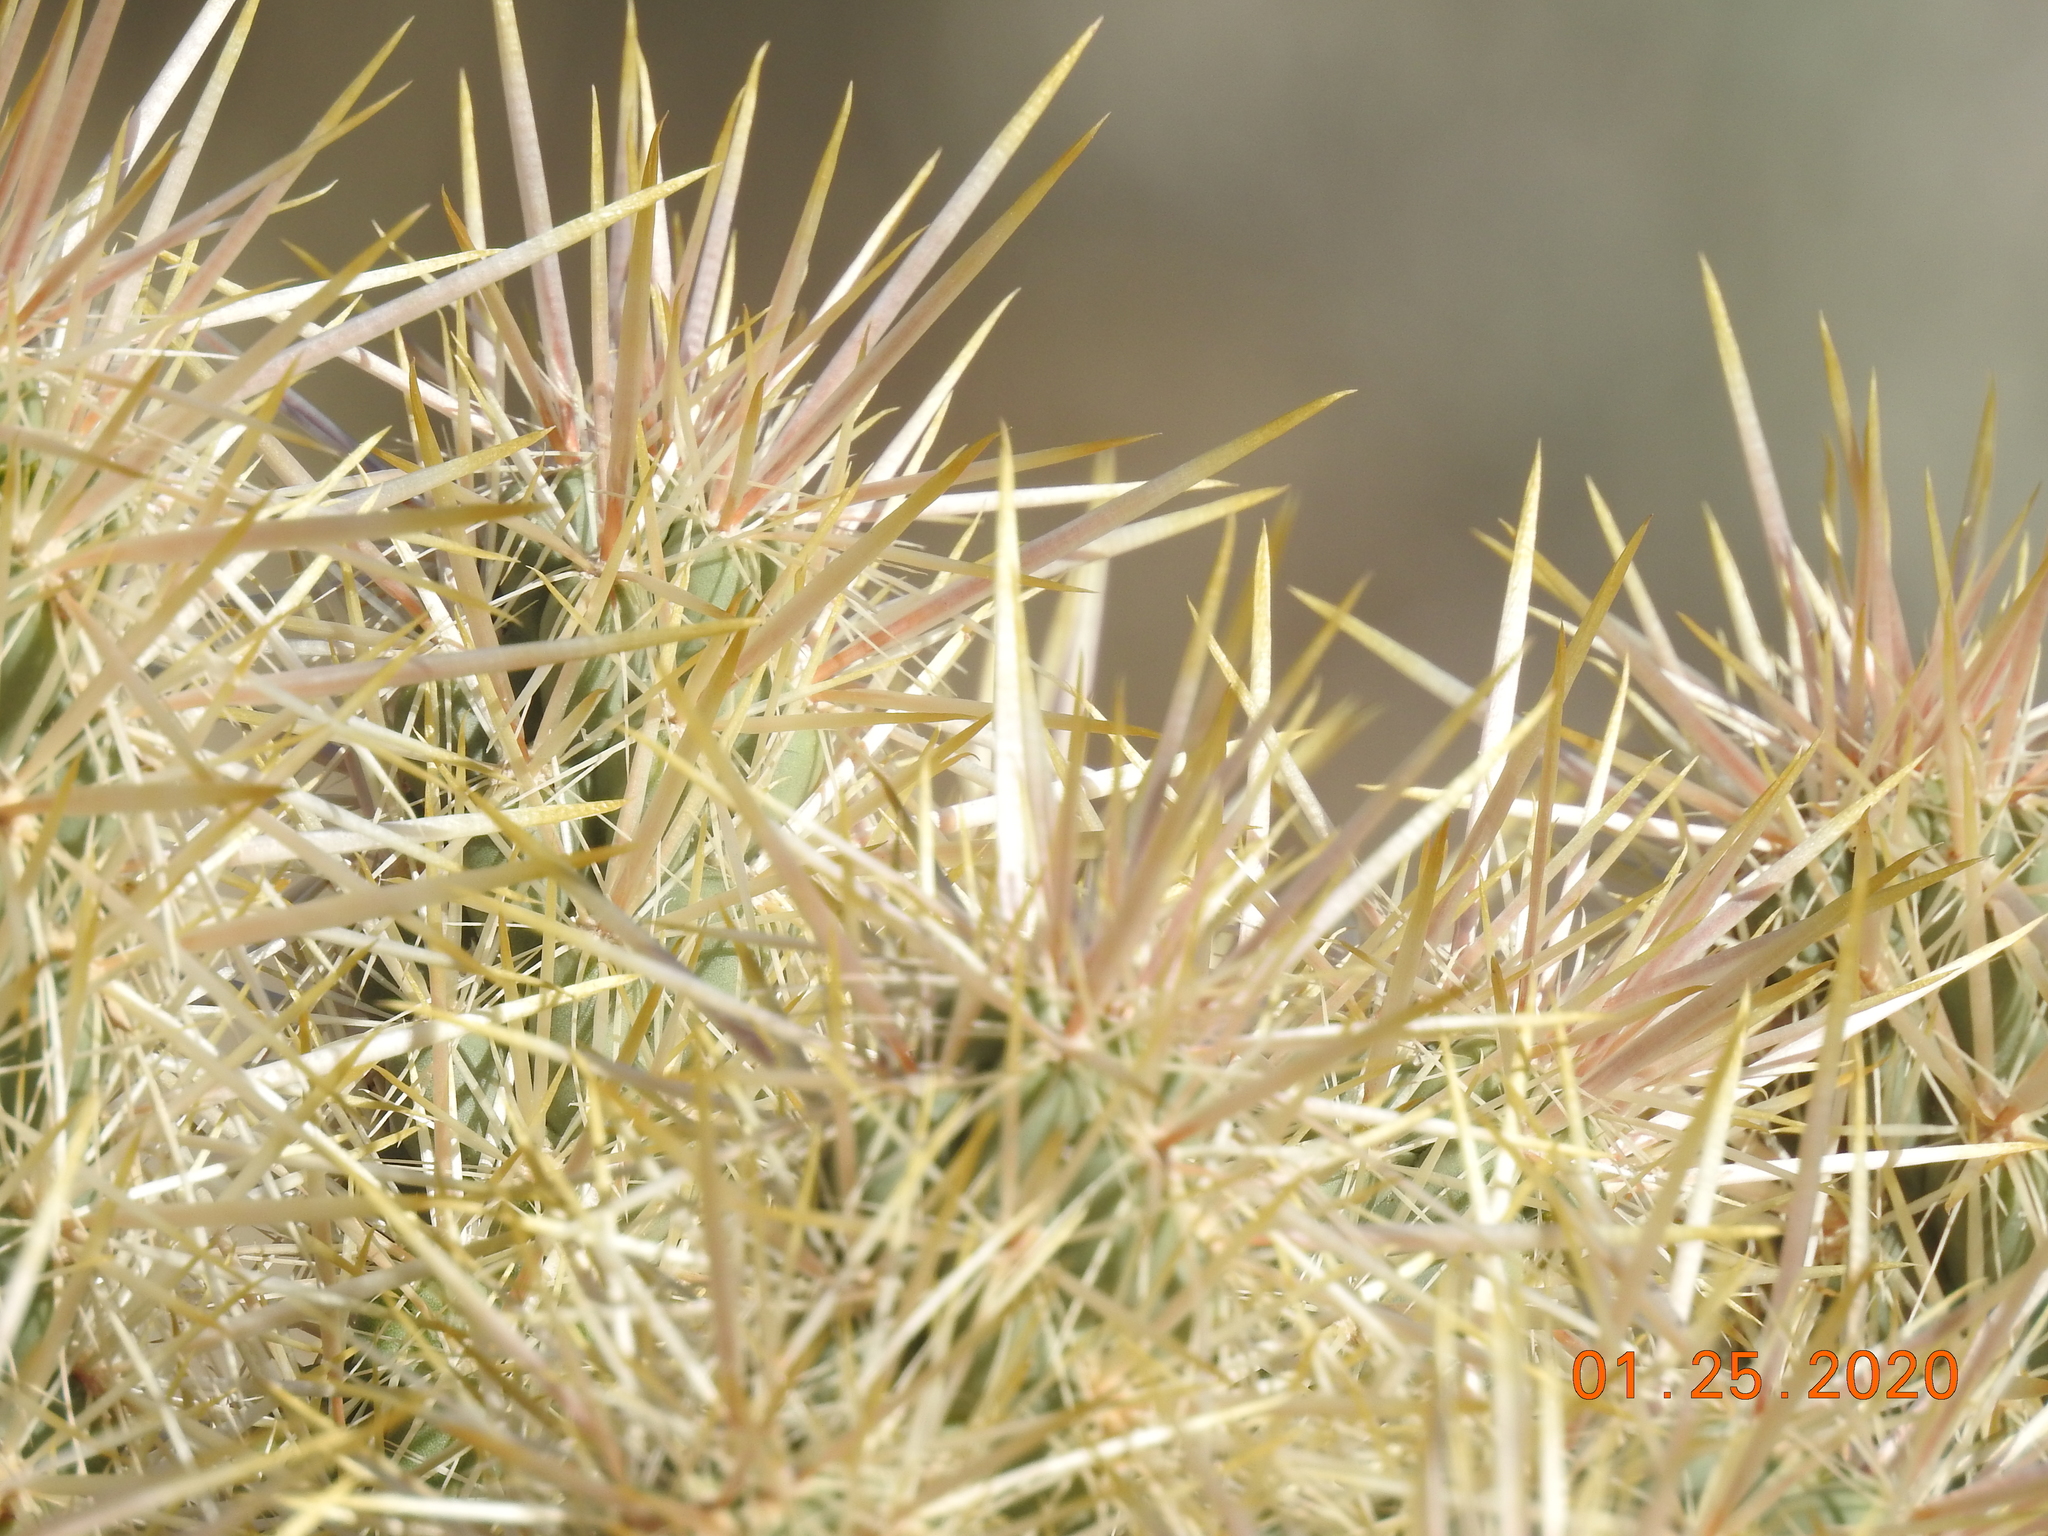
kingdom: Plantae
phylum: Tracheophyta
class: Magnoliopsida
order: Caryophyllales
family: Cactaceae
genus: Cylindropuntia
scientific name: Cylindropuntia echinocarpa
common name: Ground cholla
